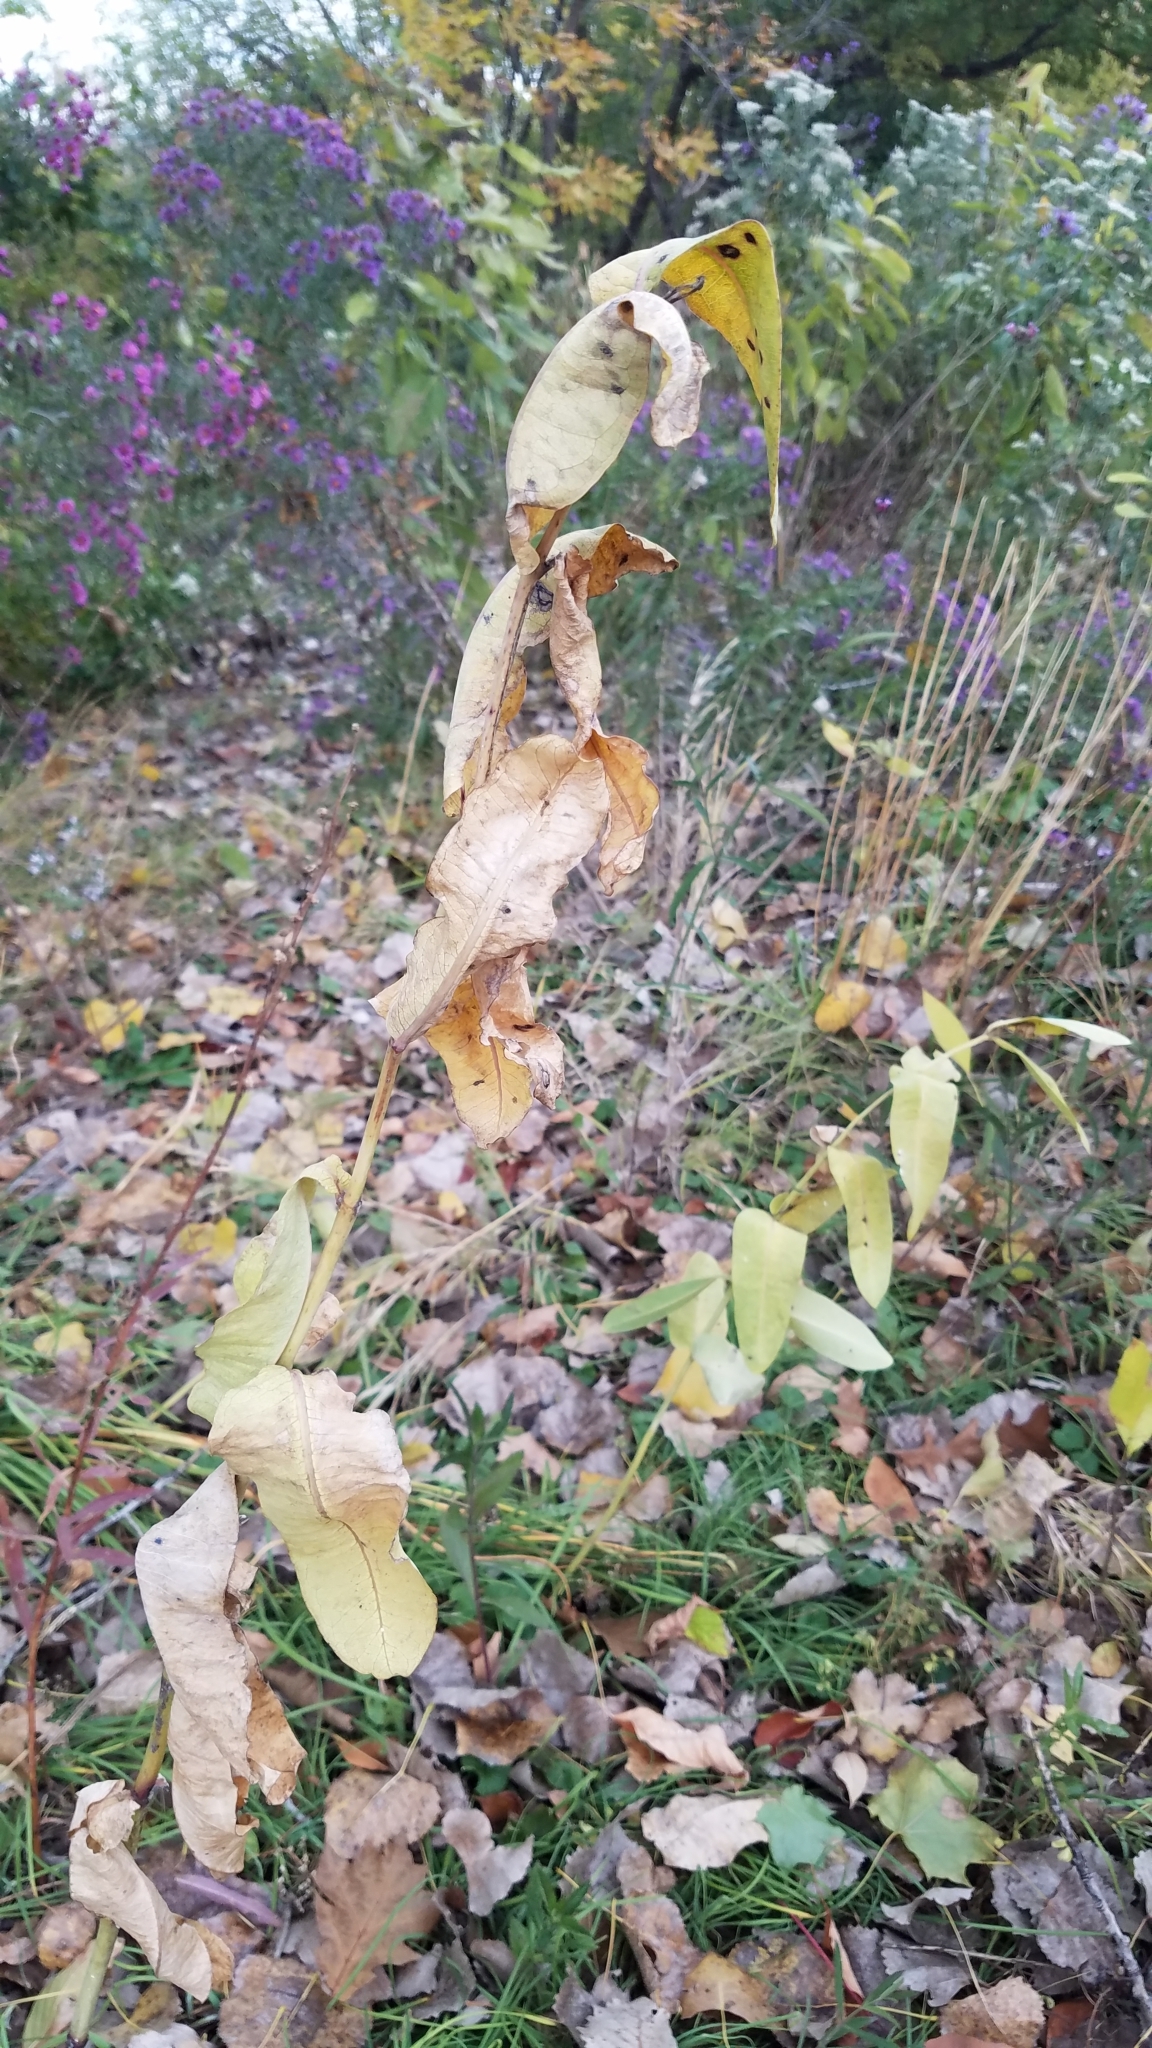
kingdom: Plantae
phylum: Tracheophyta
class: Magnoliopsida
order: Gentianales
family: Apocynaceae
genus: Asclepias
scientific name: Asclepias syriaca
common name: Common milkweed
